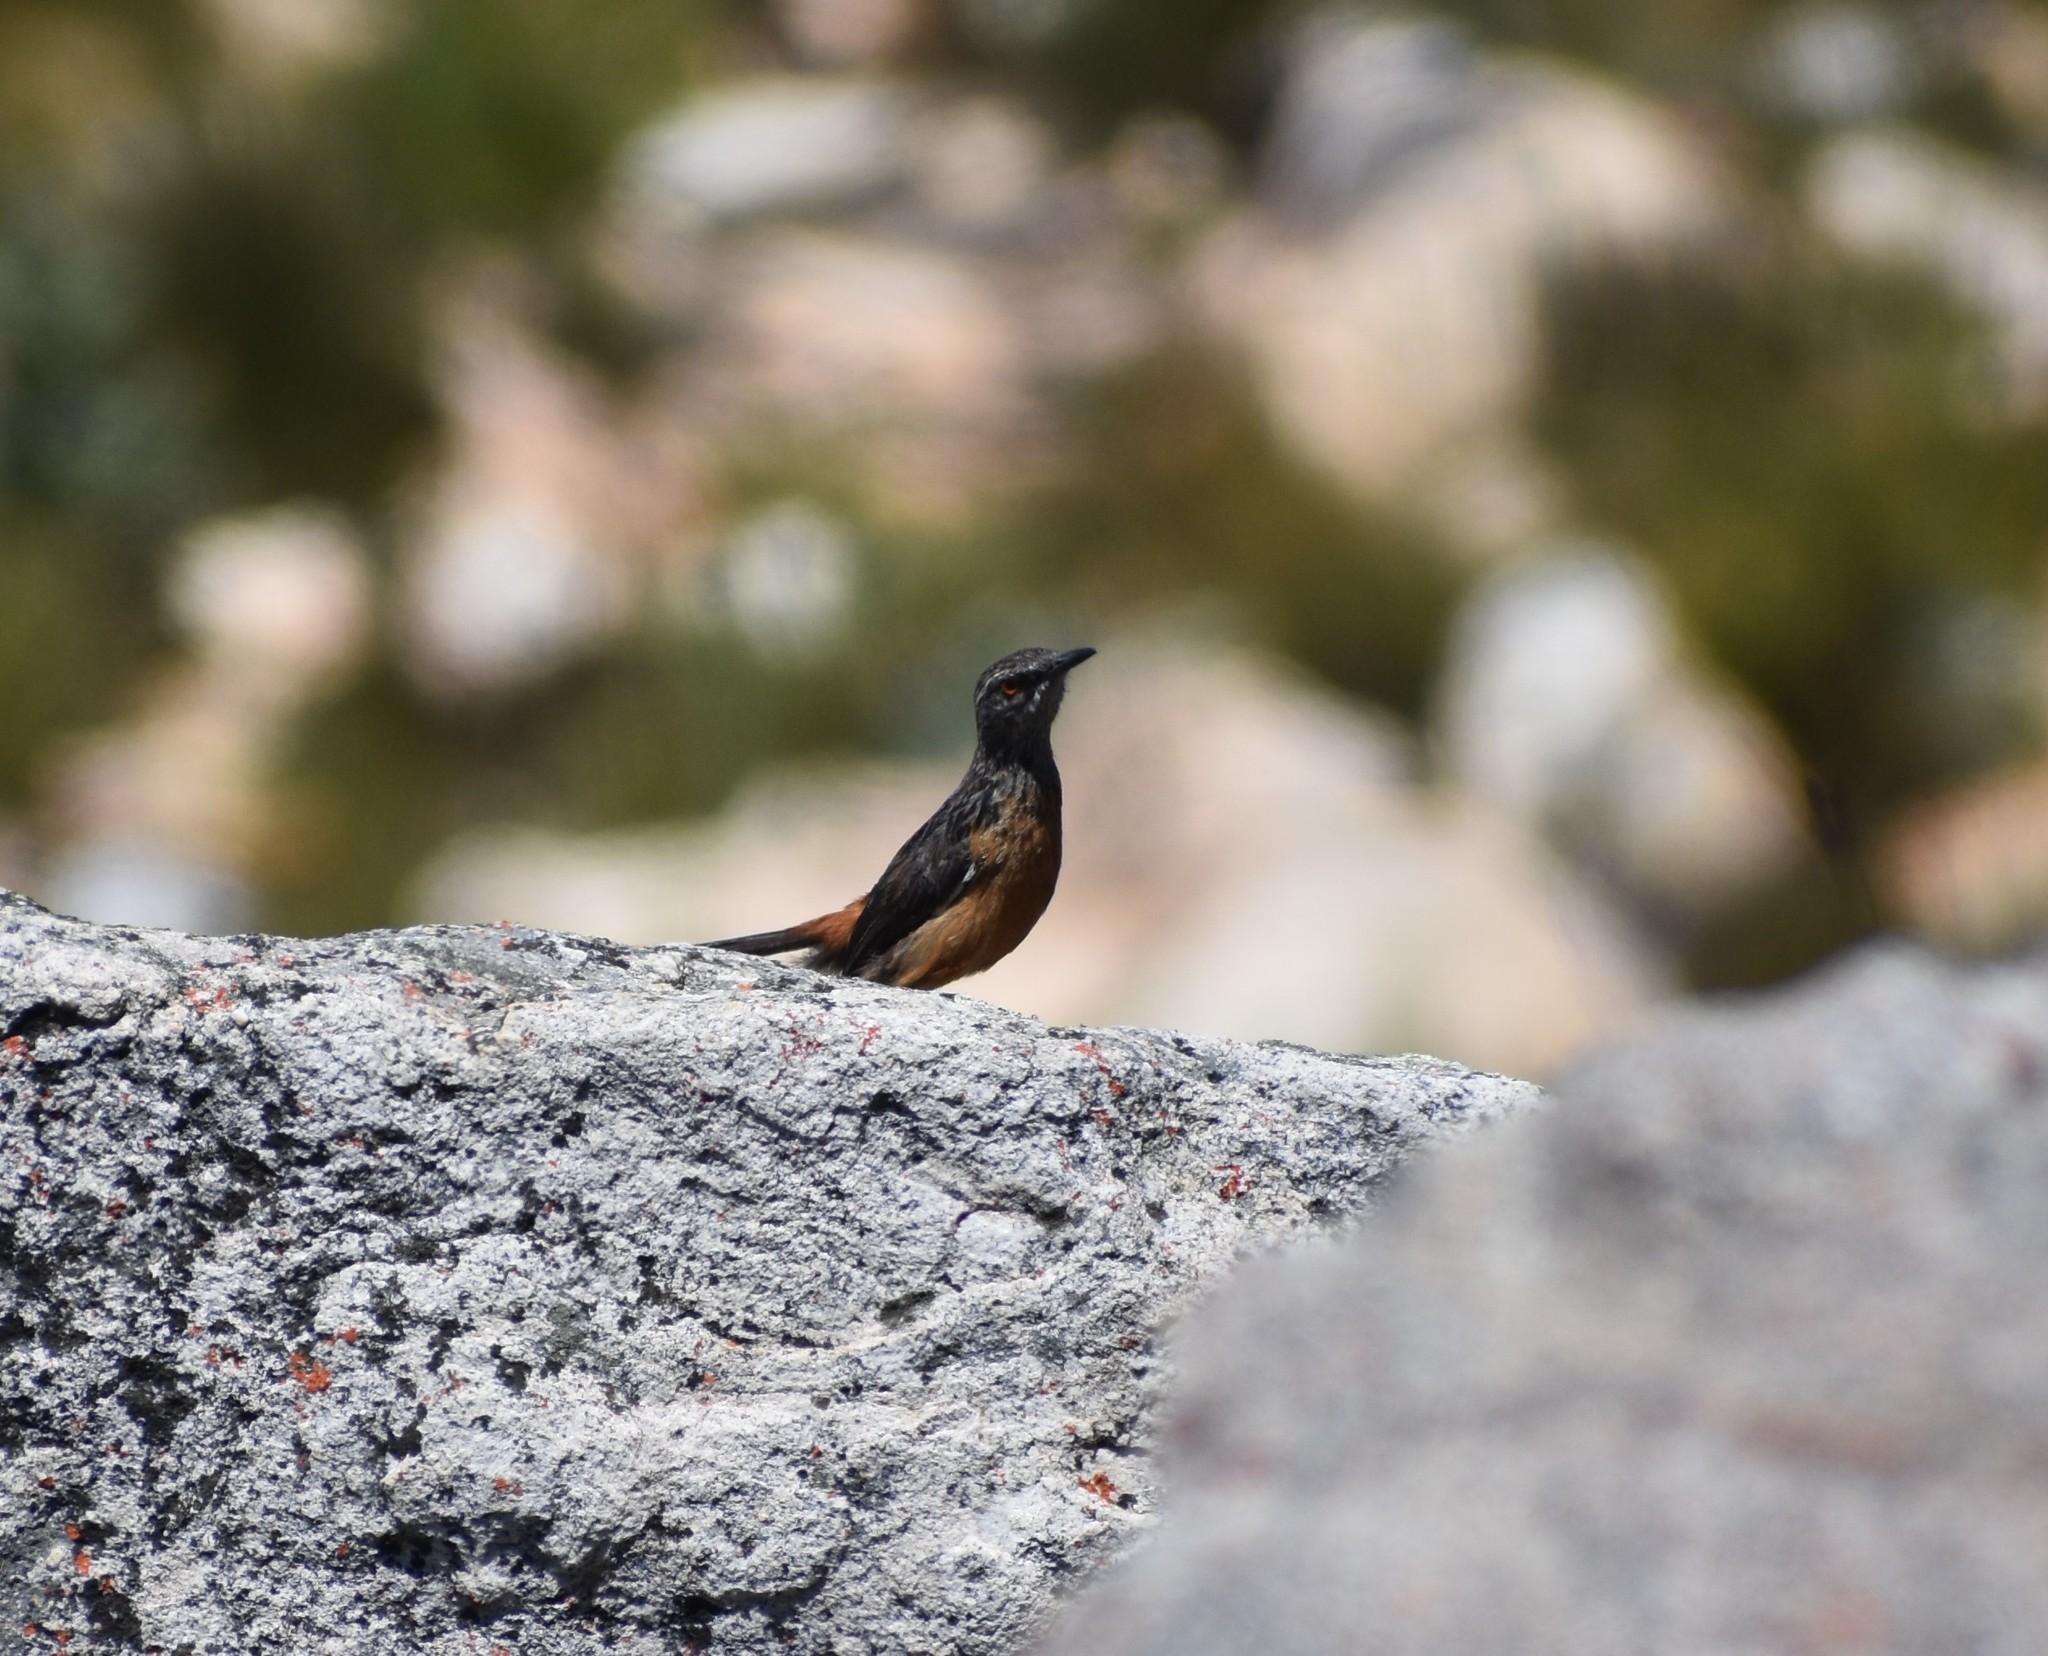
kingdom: Animalia
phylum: Chordata
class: Aves
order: Passeriformes
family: Chaetopidae
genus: Chaetops
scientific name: Chaetops frenatus
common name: Cape rockjumper
